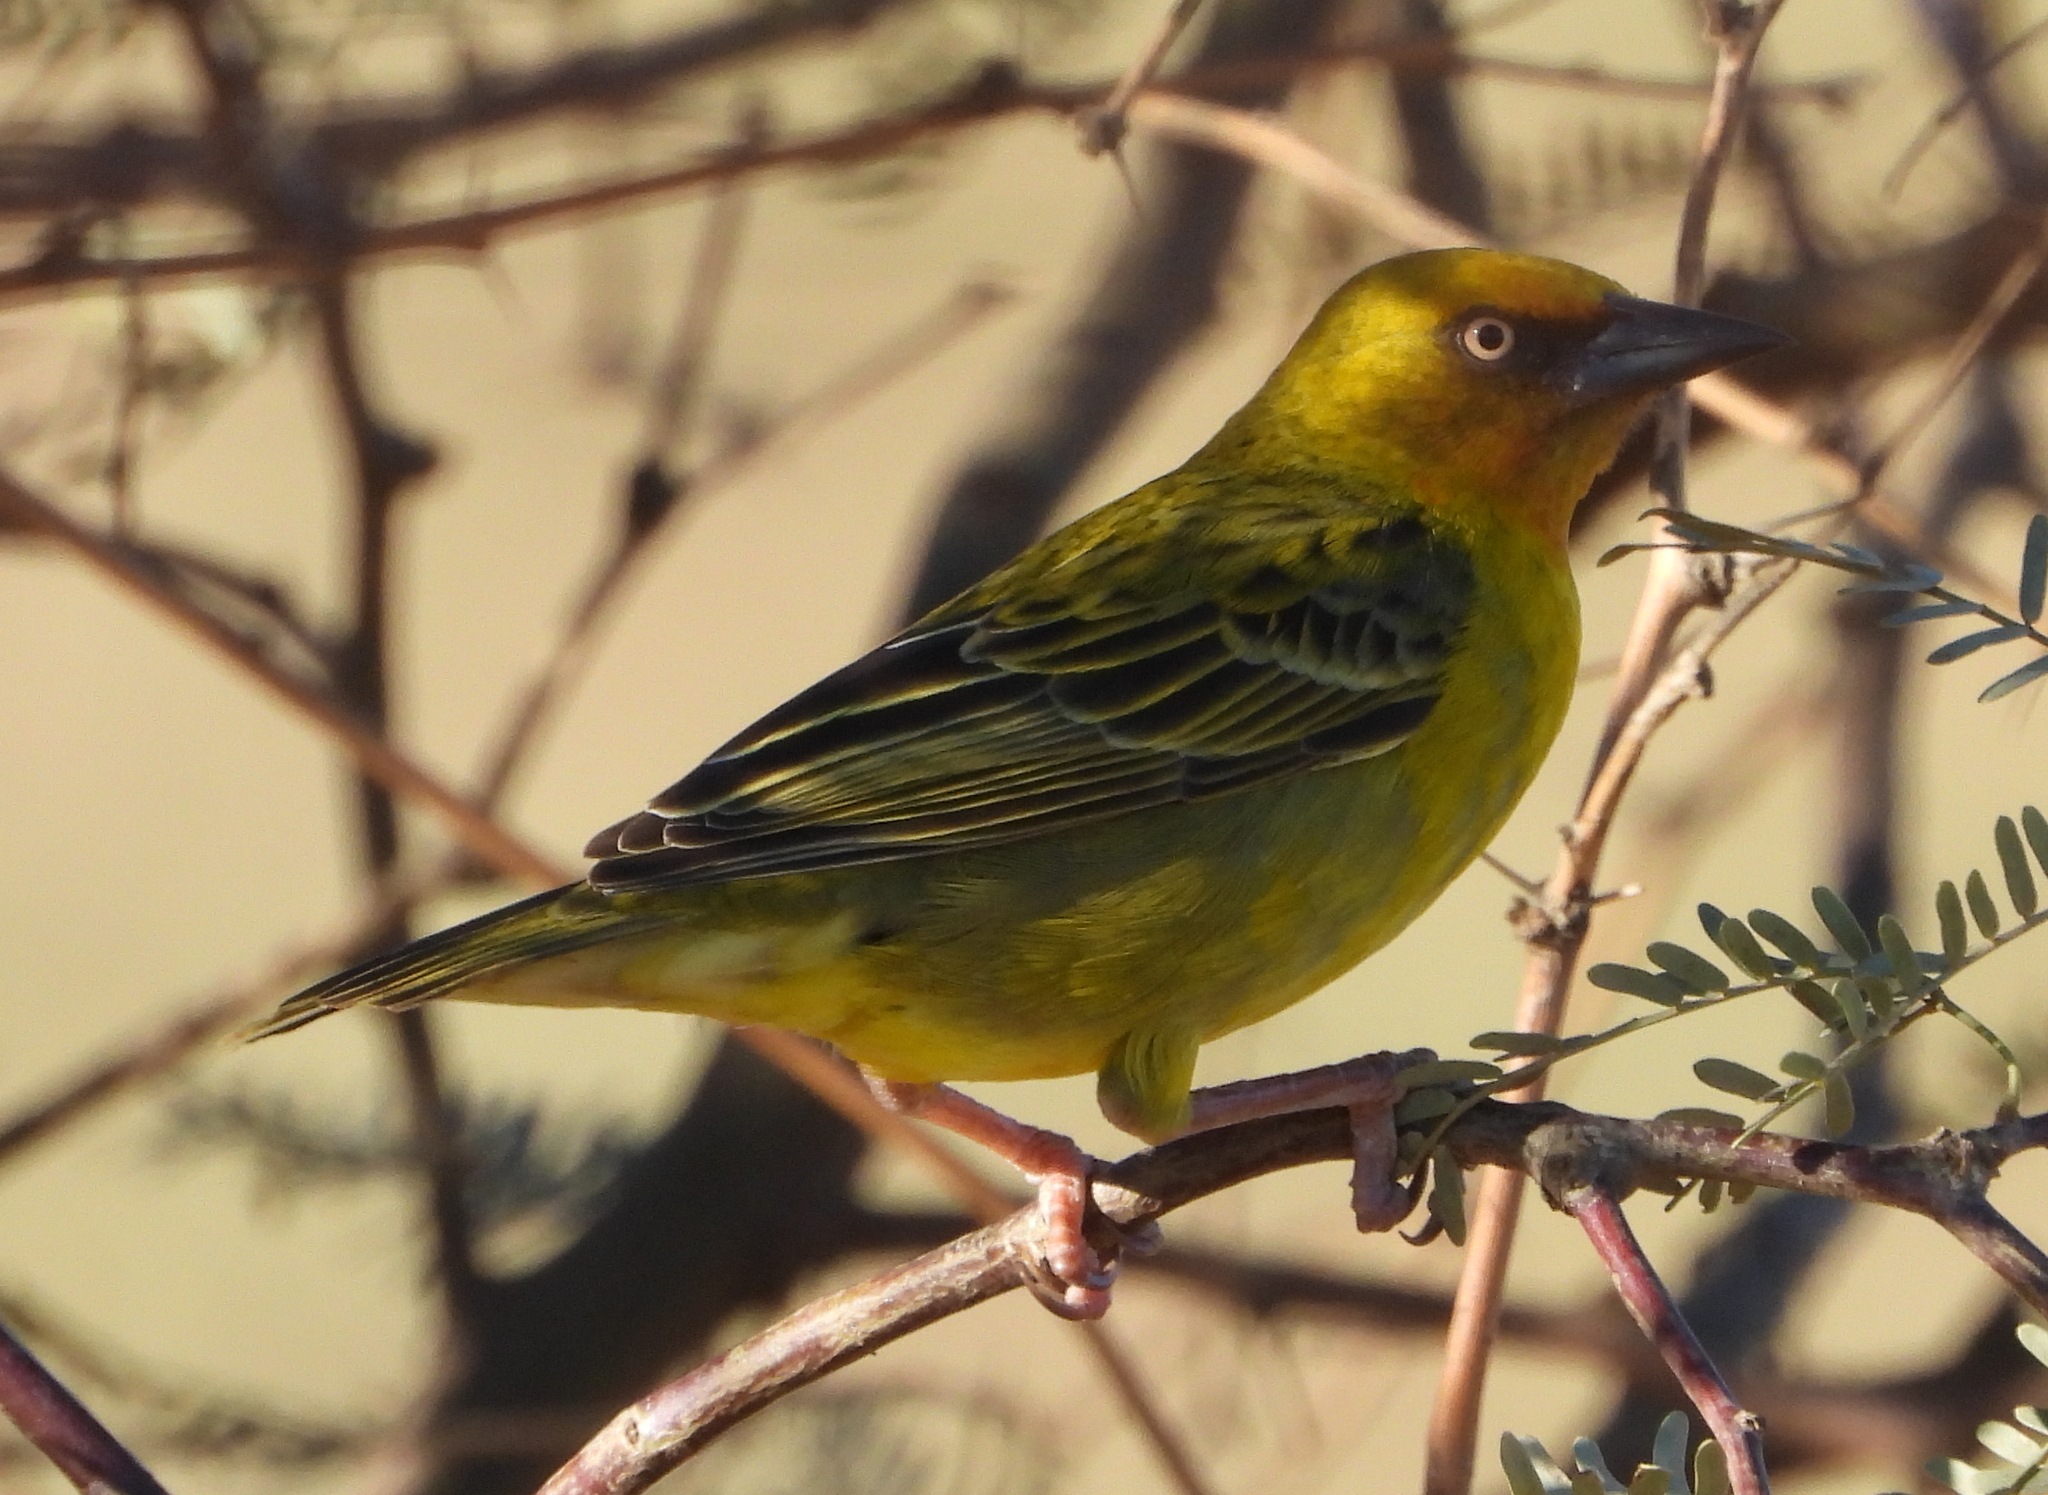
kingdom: Animalia
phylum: Chordata
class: Aves
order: Passeriformes
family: Ploceidae
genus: Ploceus
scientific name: Ploceus capensis
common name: Cape weaver
